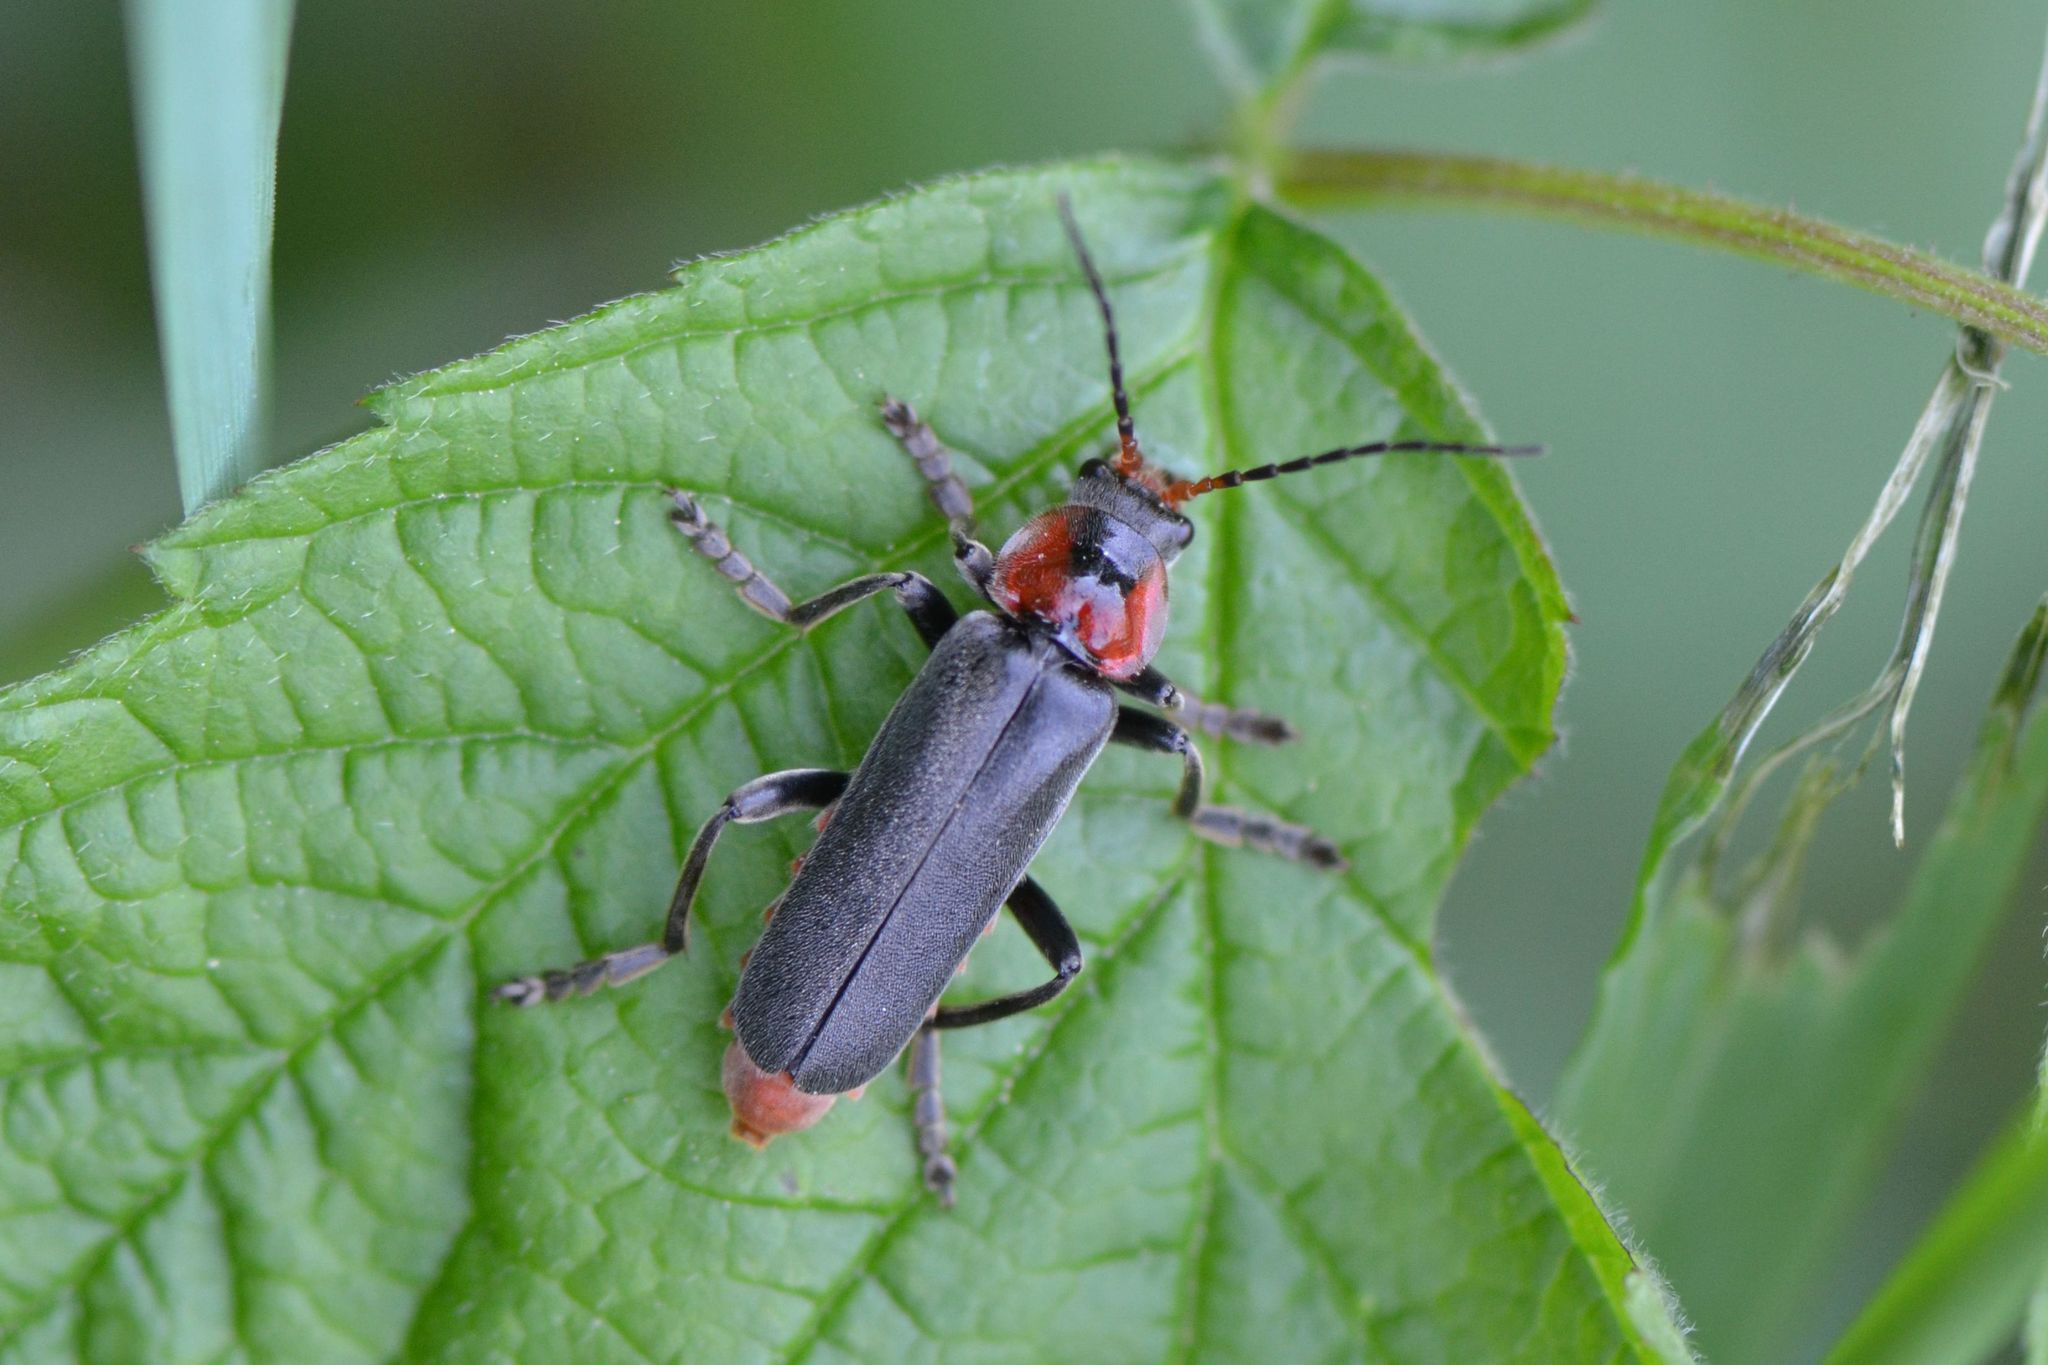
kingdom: Animalia
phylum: Arthropoda
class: Insecta
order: Coleoptera
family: Cantharidae
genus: Cantharis
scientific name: Cantharis fusca
